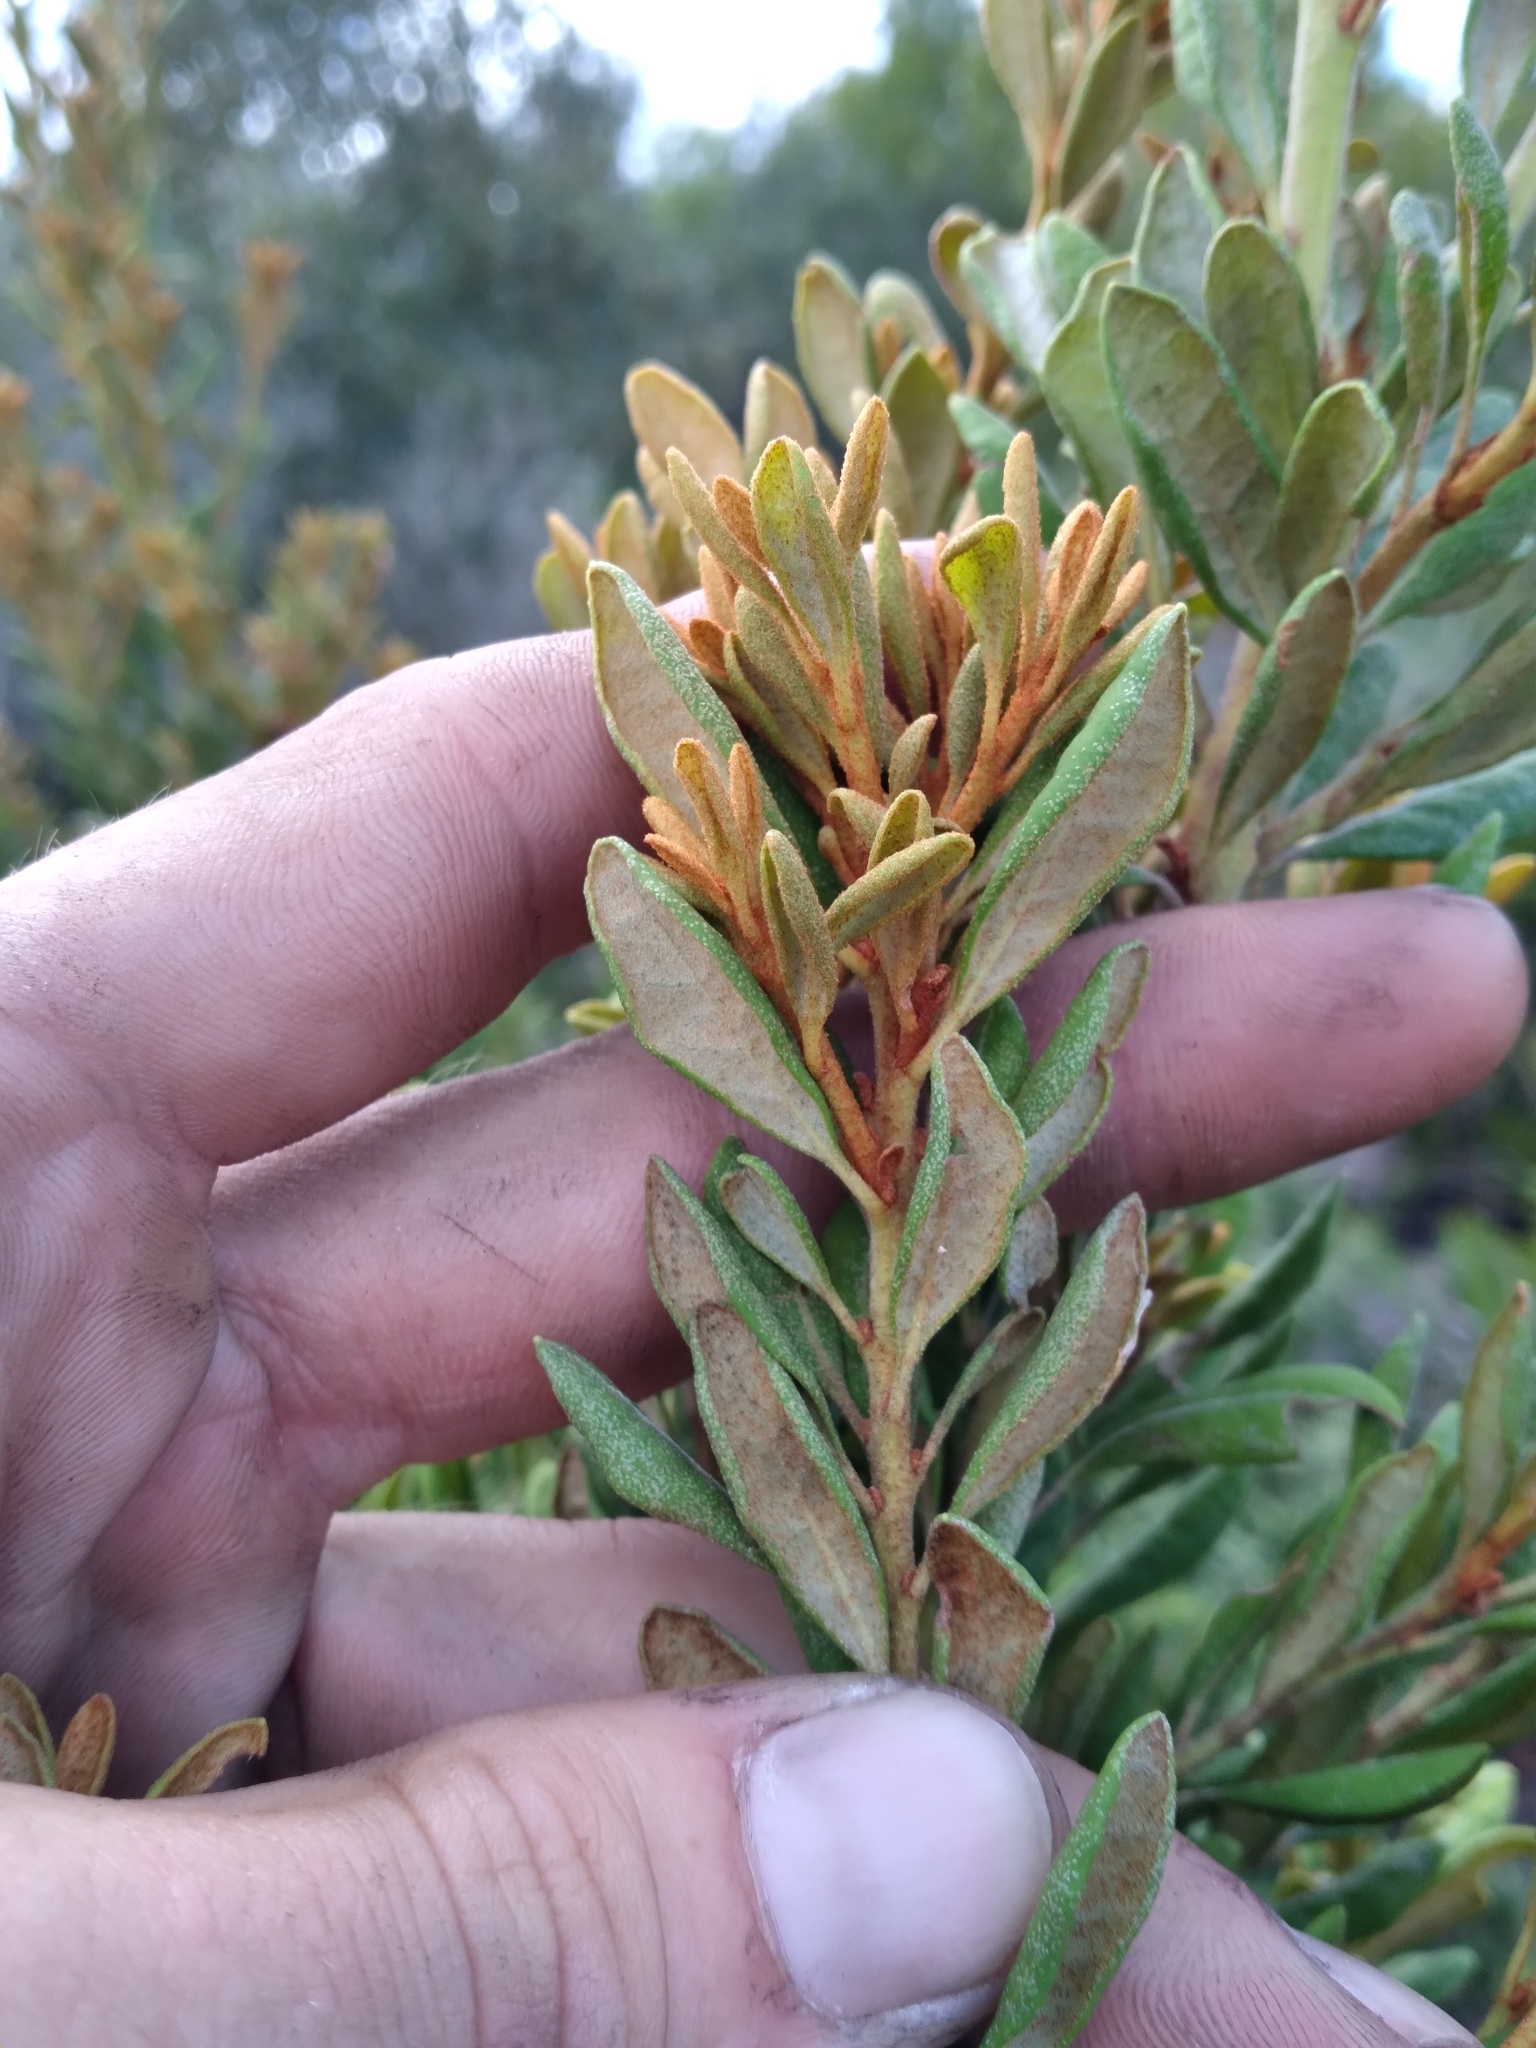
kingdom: Plantae
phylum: Tracheophyta
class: Magnoliopsida
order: Ericales
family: Ericaceae
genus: Lyonia
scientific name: Lyonia ferruginea
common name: Rusty lyonia
